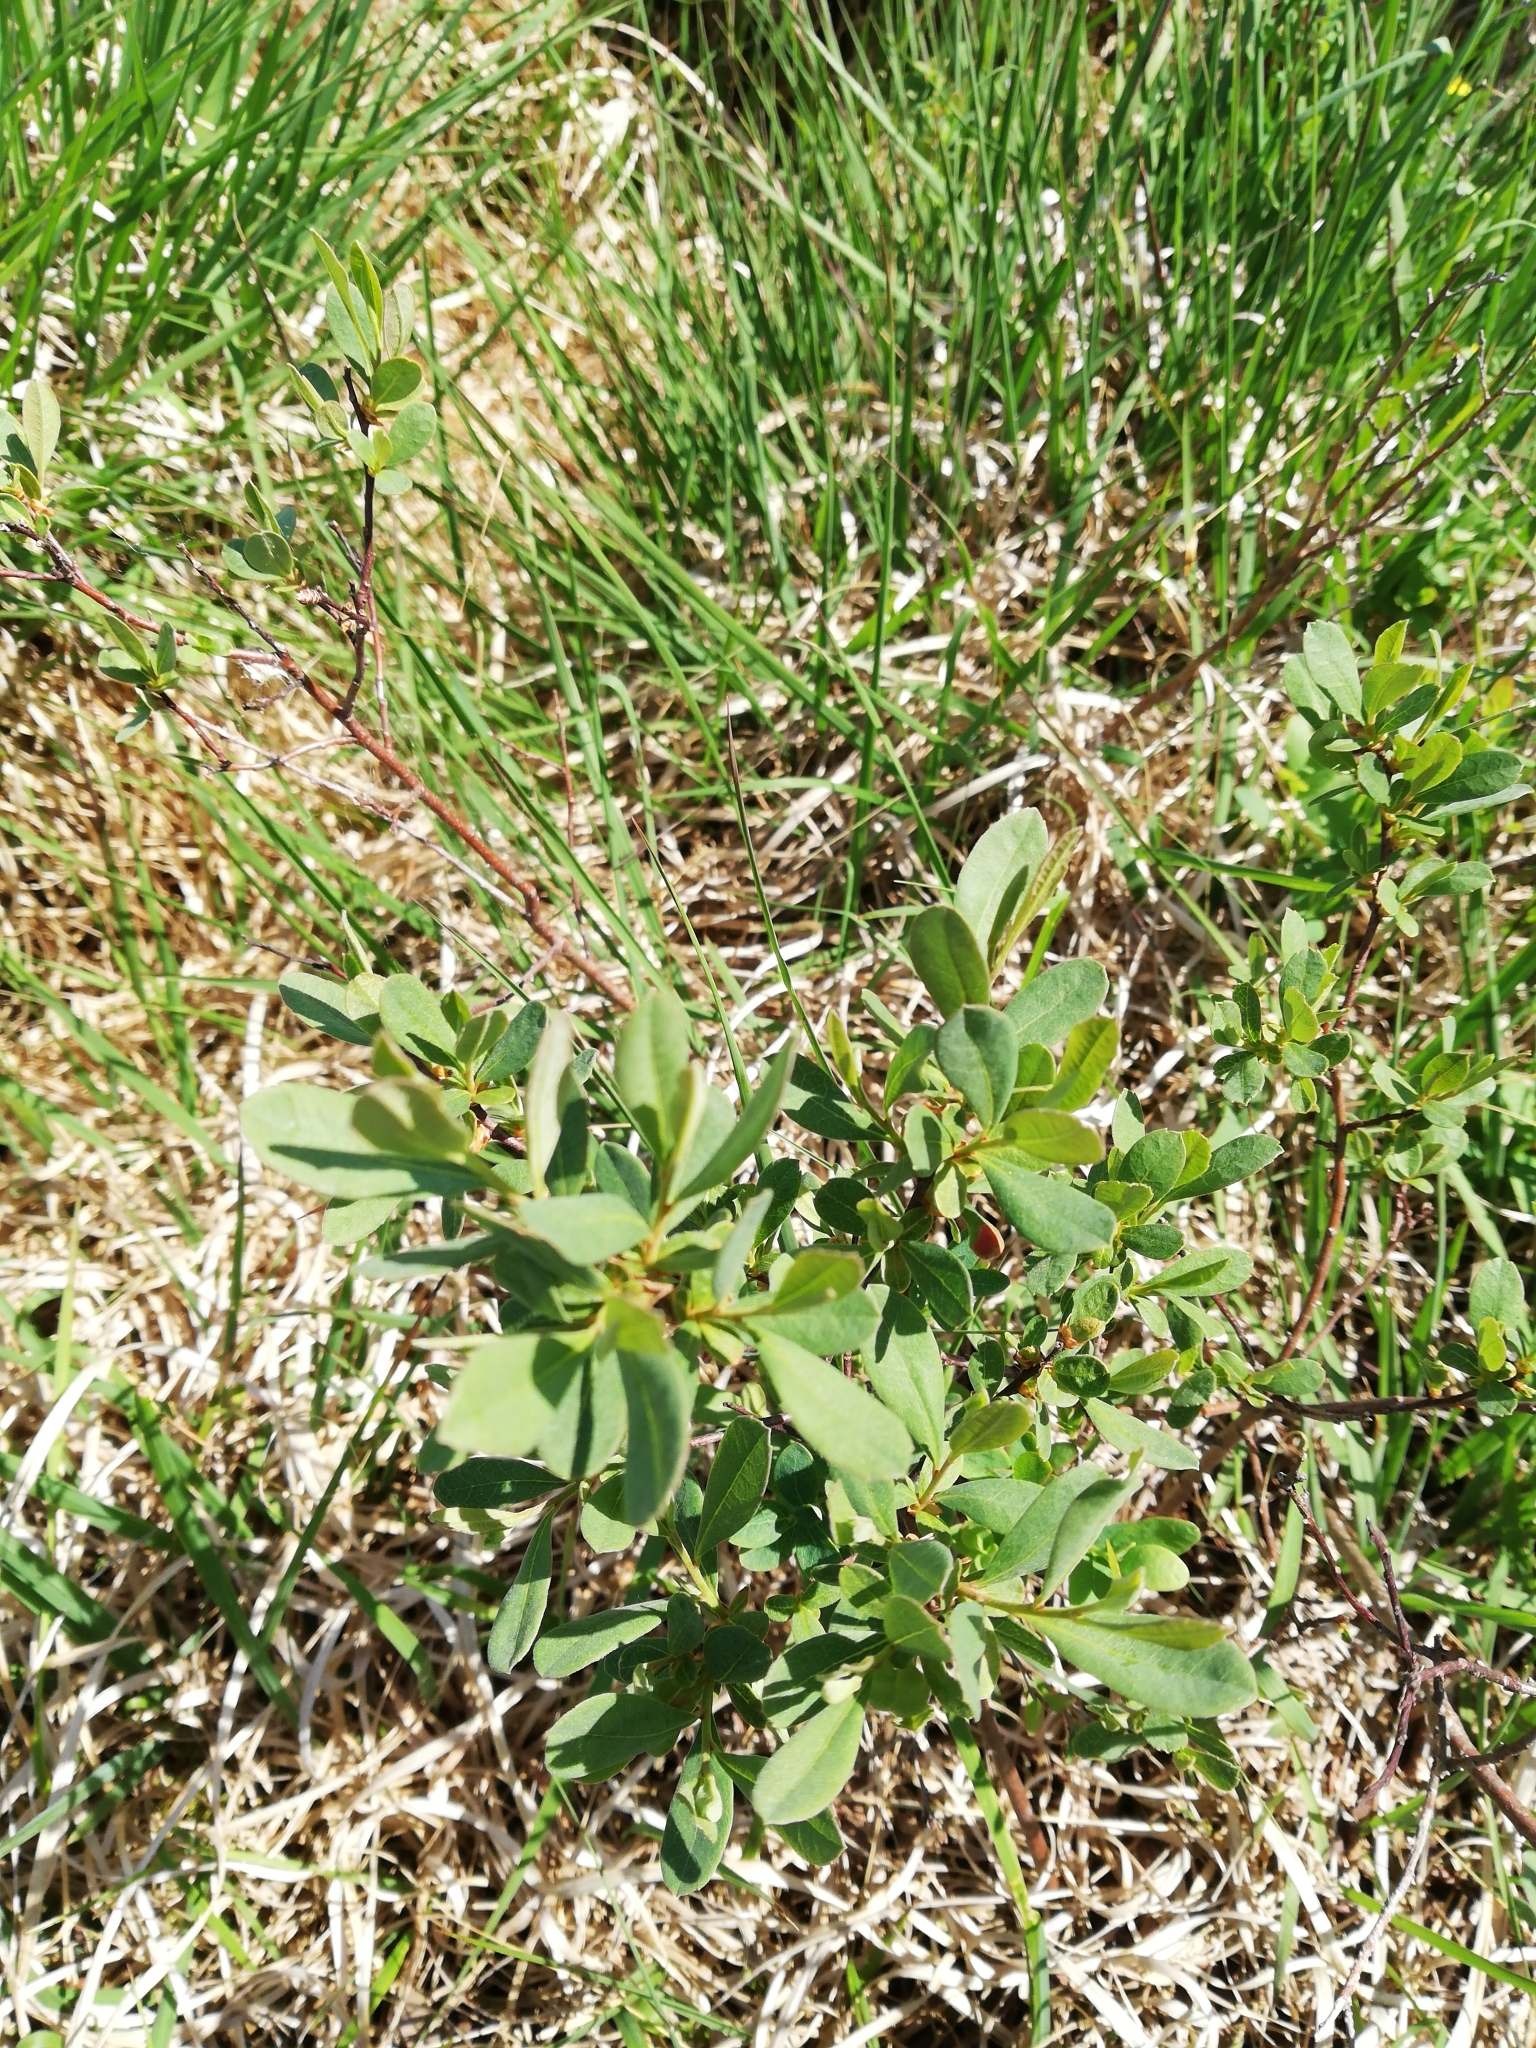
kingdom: Plantae
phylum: Tracheophyta
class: Magnoliopsida
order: Fagales
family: Myricaceae
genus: Myrica
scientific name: Myrica gale
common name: Sweet gale
